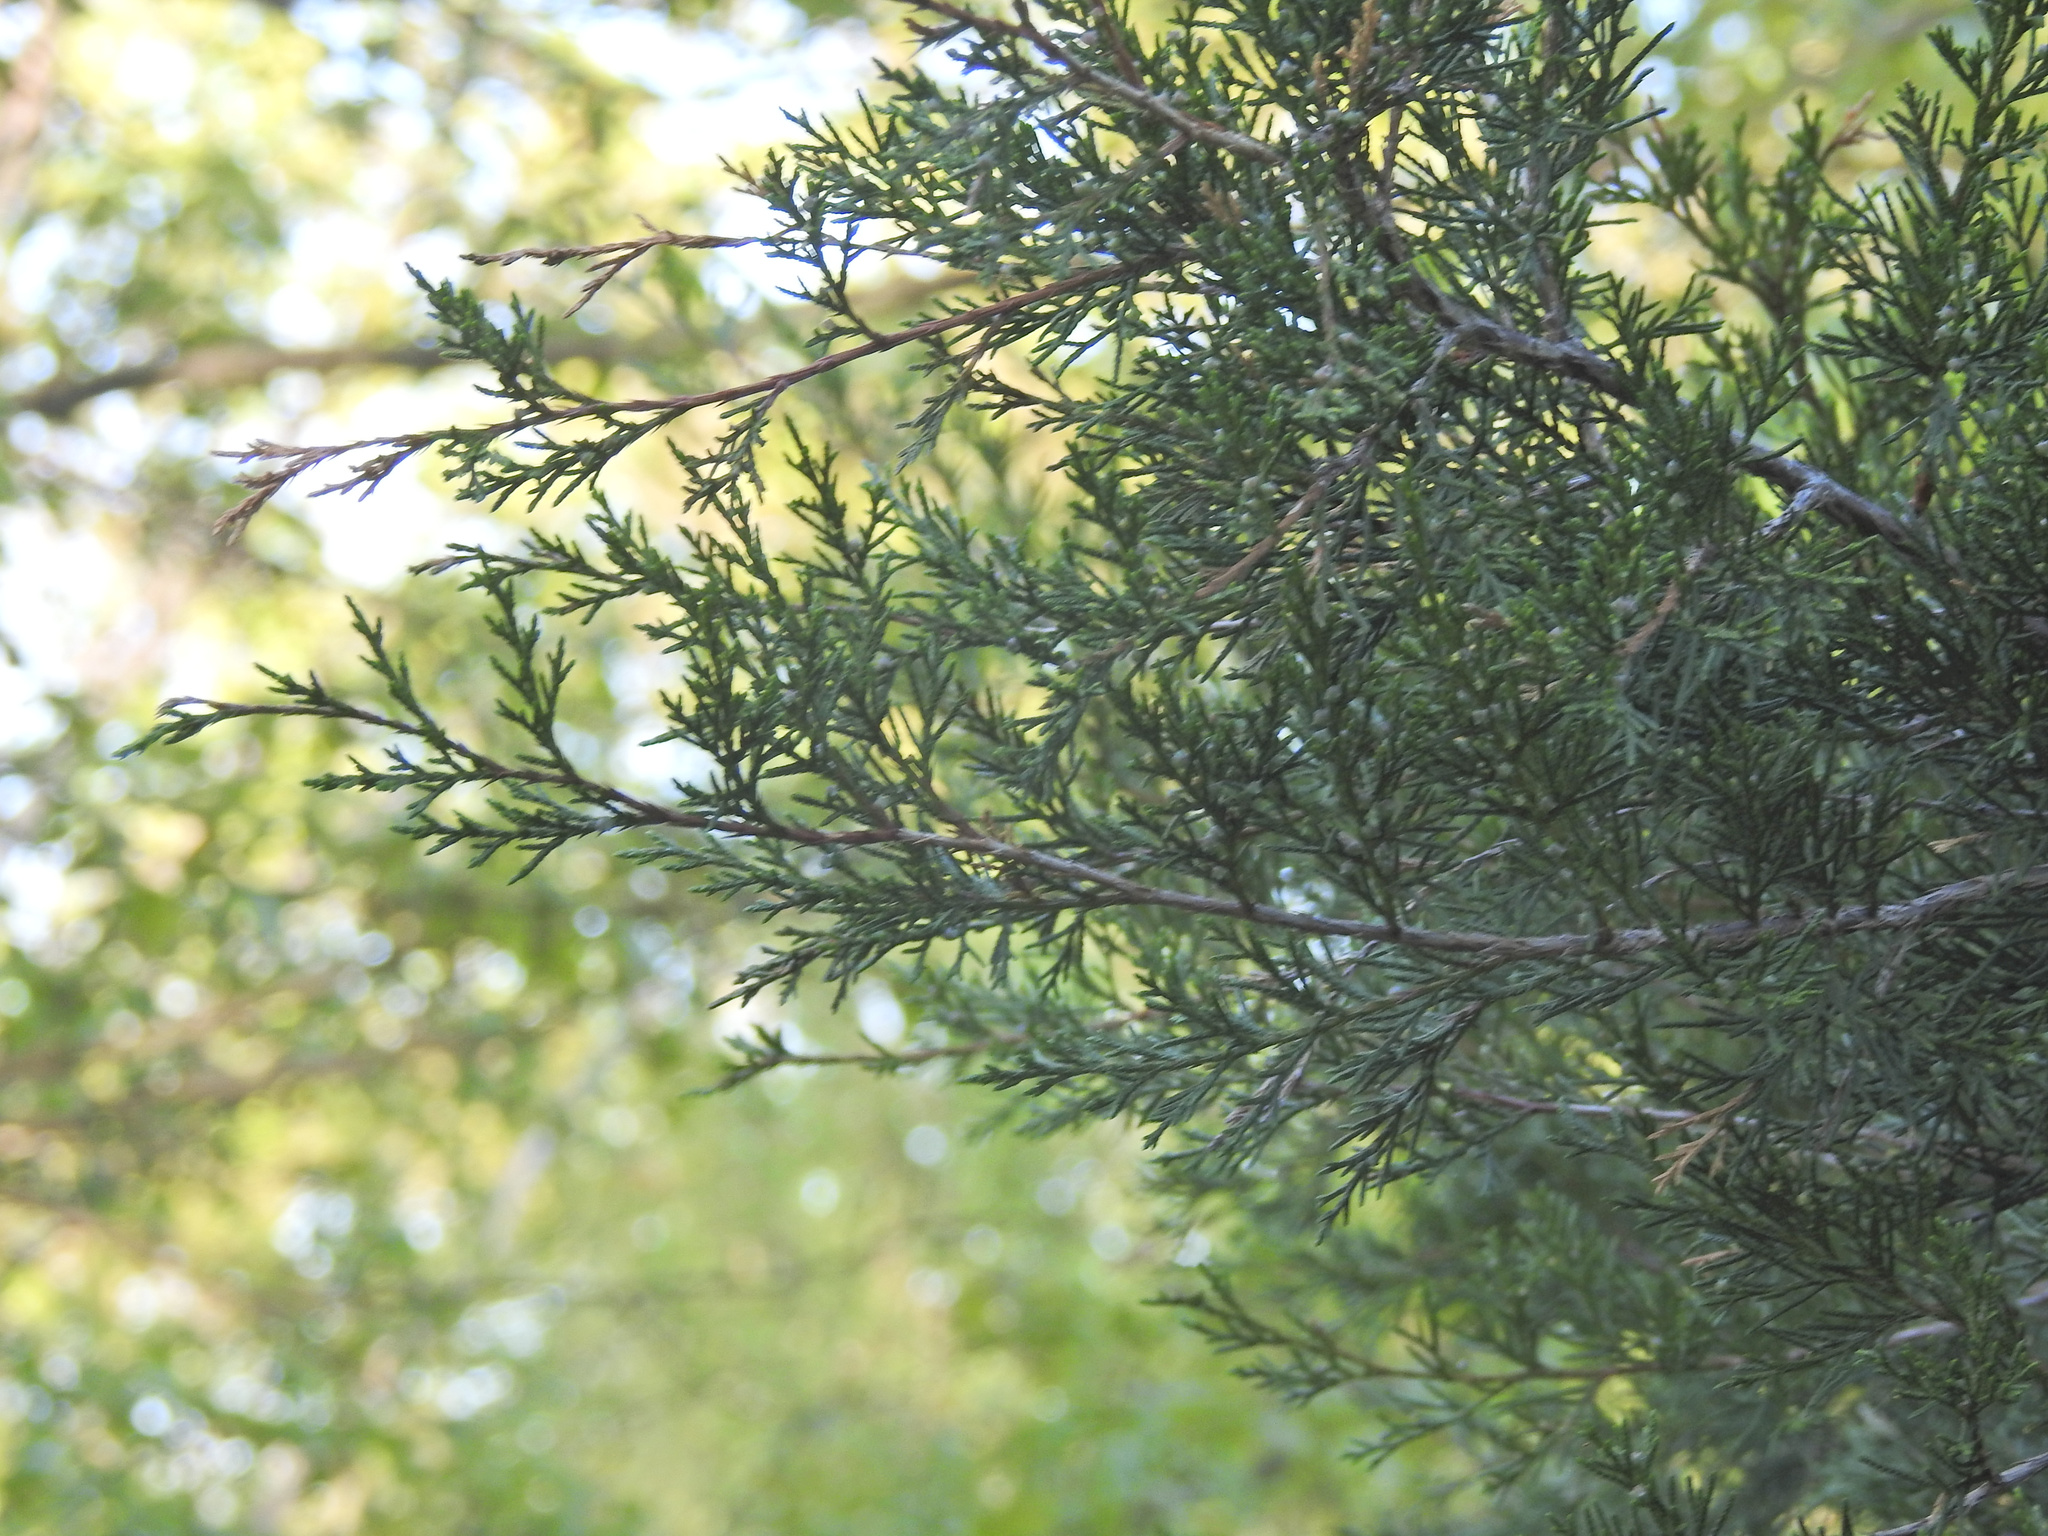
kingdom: Plantae
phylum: Tracheophyta
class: Pinopsida
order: Pinales
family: Cupressaceae
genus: Juniperus
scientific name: Juniperus virginiana
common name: Red juniper
